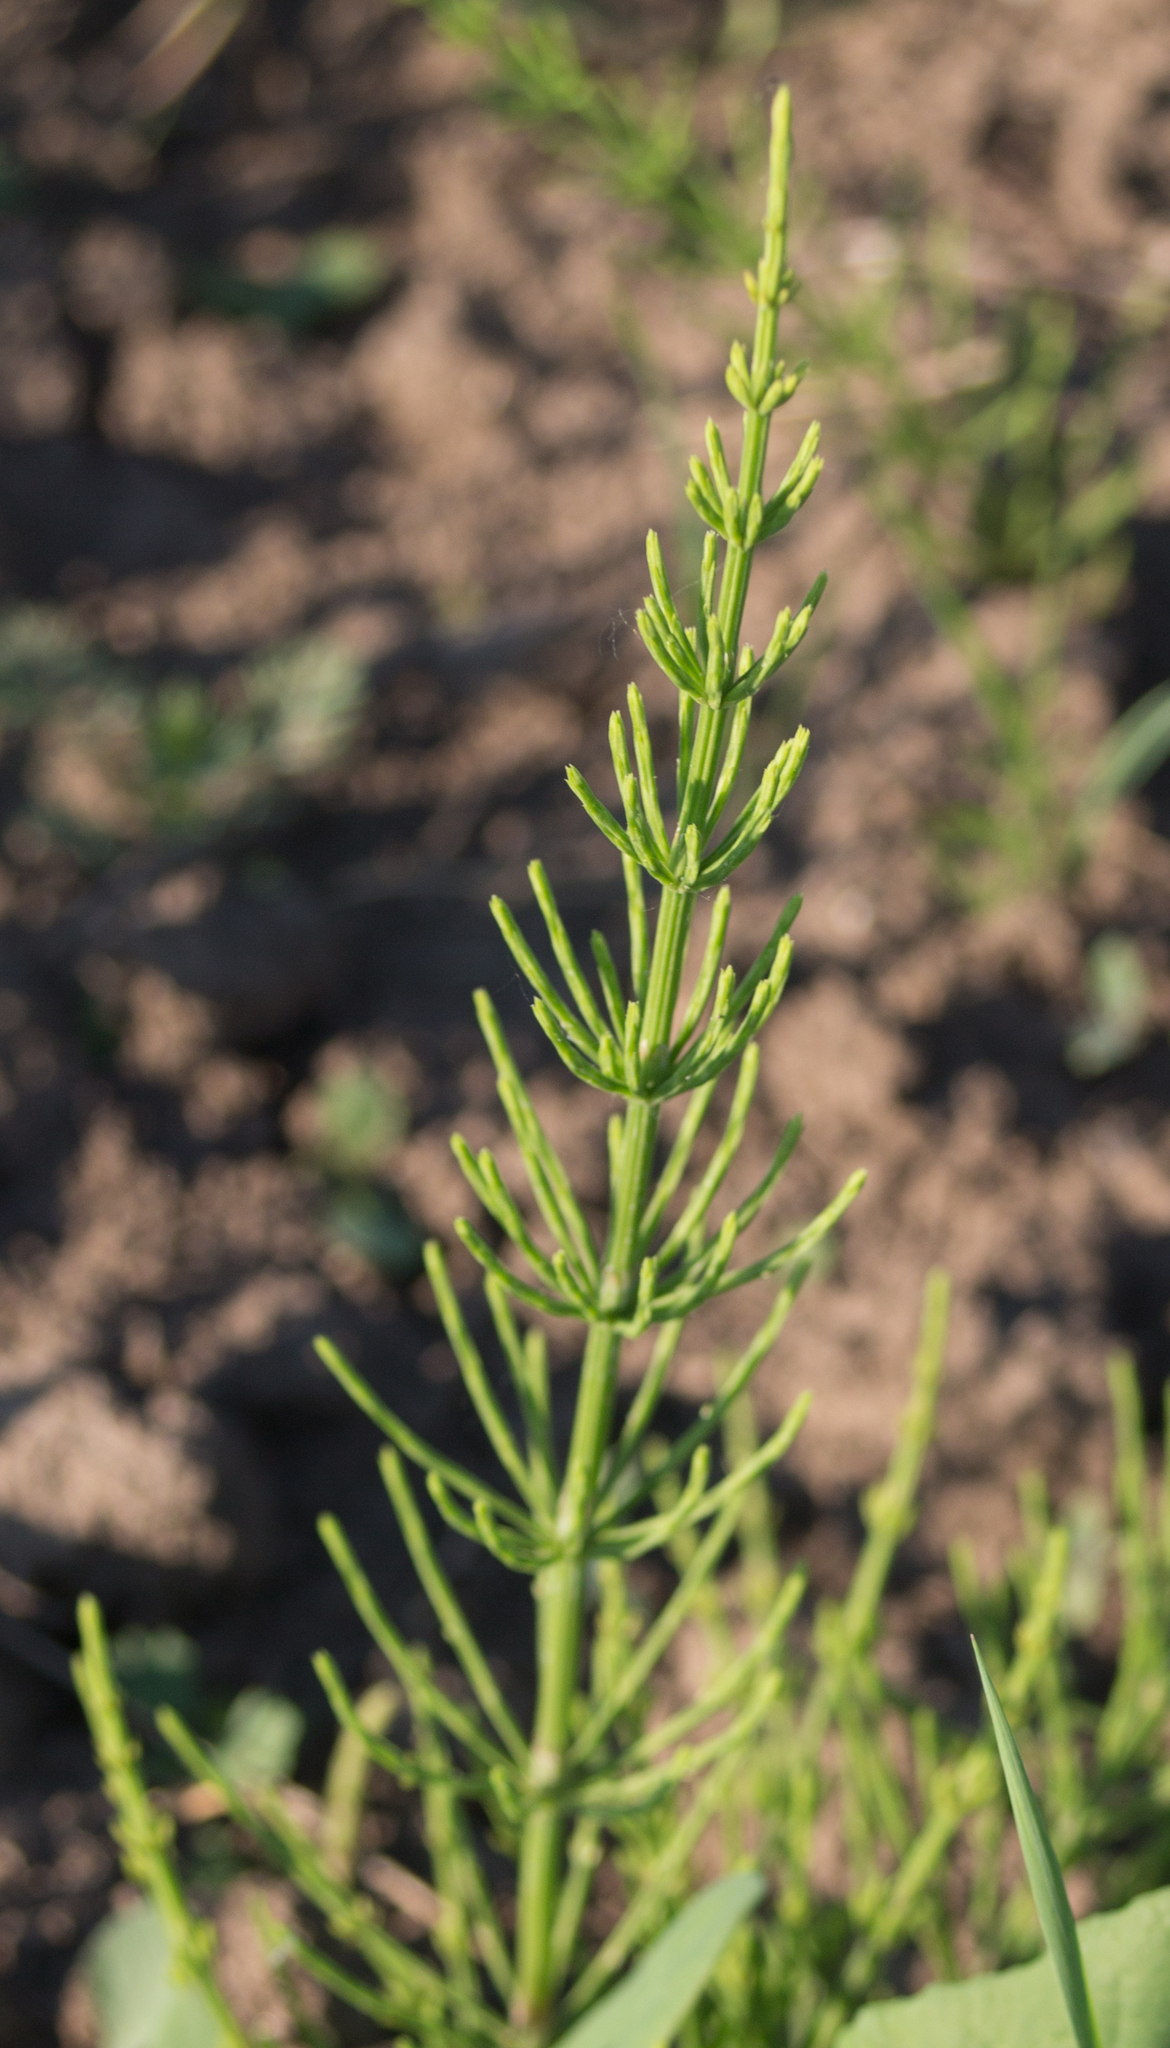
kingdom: Plantae
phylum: Tracheophyta
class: Polypodiopsida
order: Equisetales
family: Equisetaceae
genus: Equisetum
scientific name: Equisetum arvense
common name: Field horsetail
